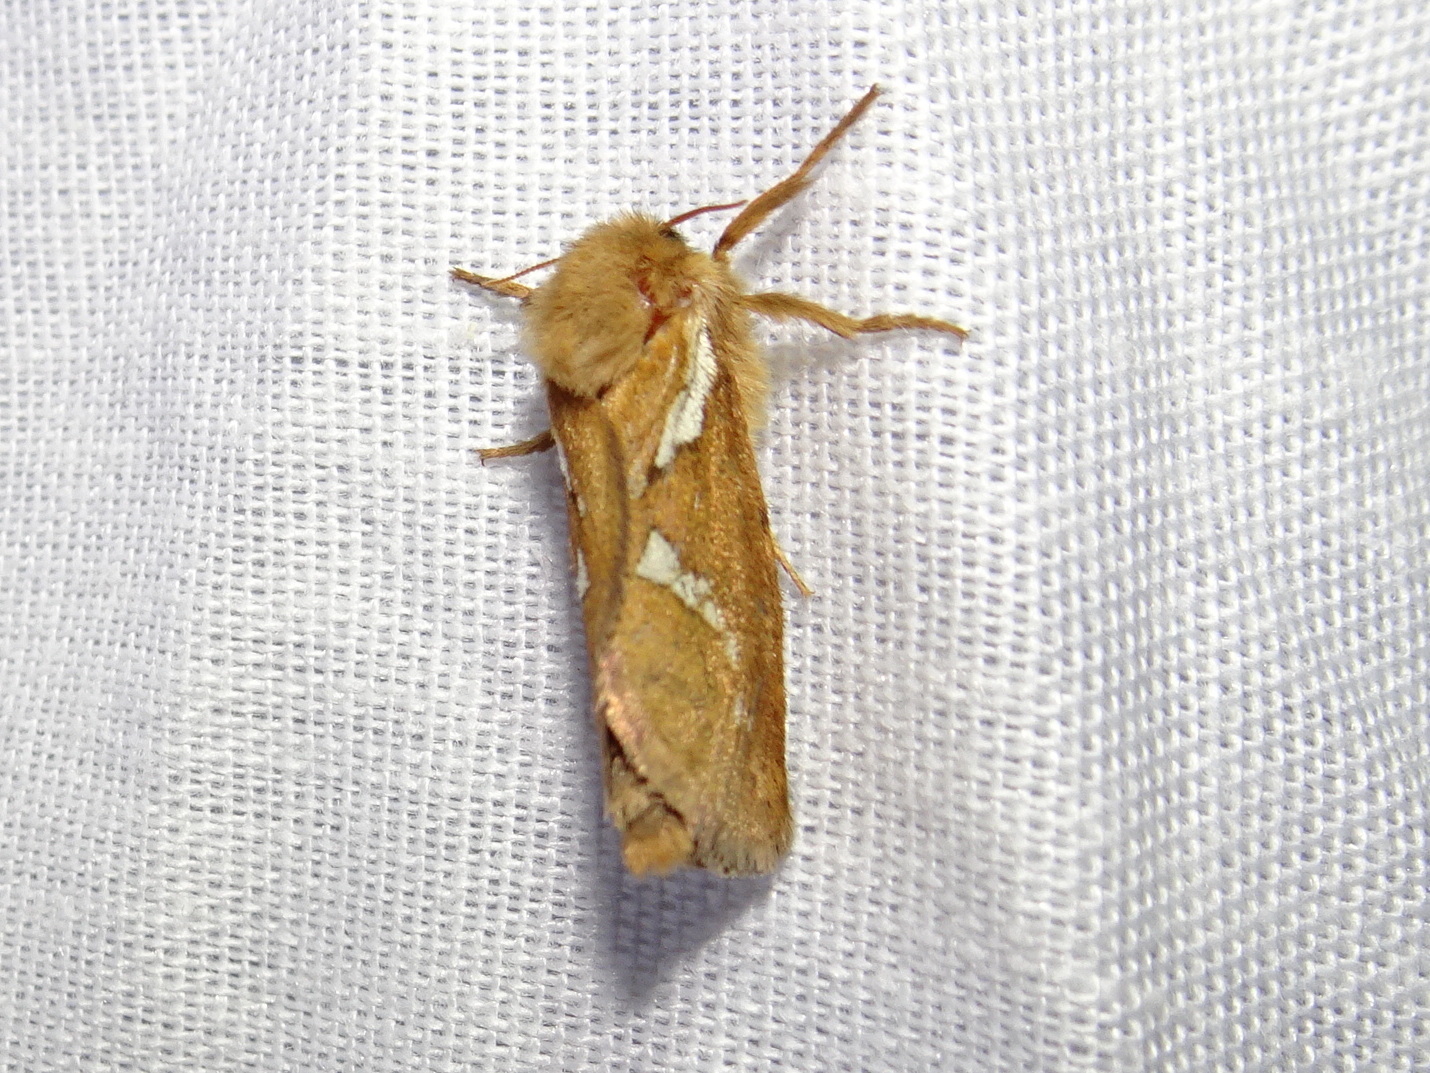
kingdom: Animalia
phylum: Arthropoda
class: Insecta
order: Lepidoptera
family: Hepialidae
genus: Korscheltellus
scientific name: Korscheltellus lupulina
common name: Common swift
